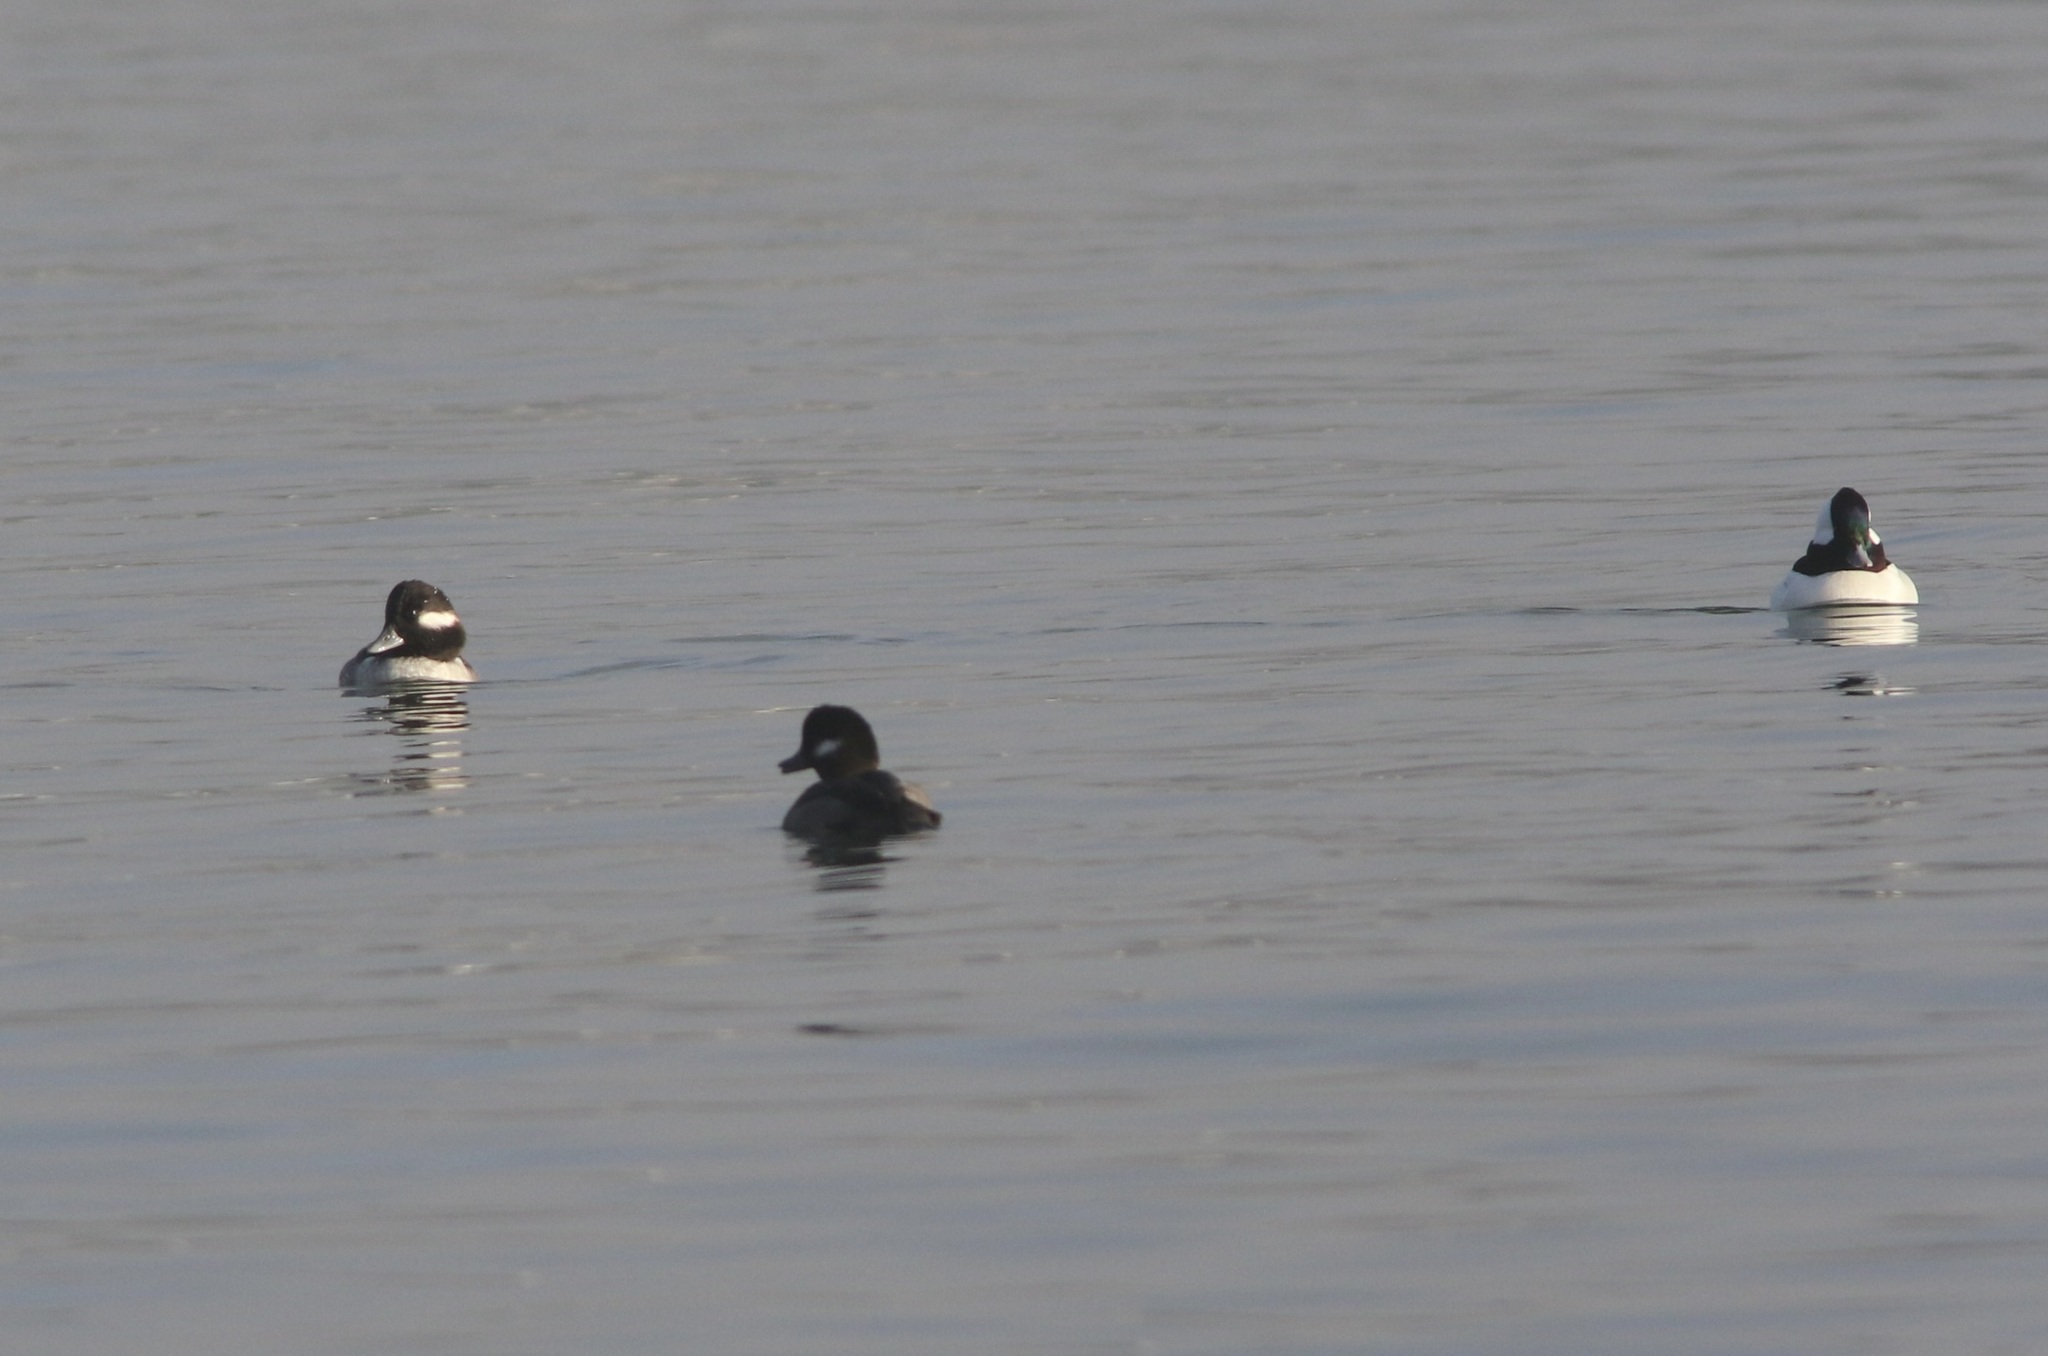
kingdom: Animalia
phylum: Chordata
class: Aves
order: Anseriformes
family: Anatidae
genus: Bucephala
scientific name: Bucephala albeola
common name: Bufflehead
